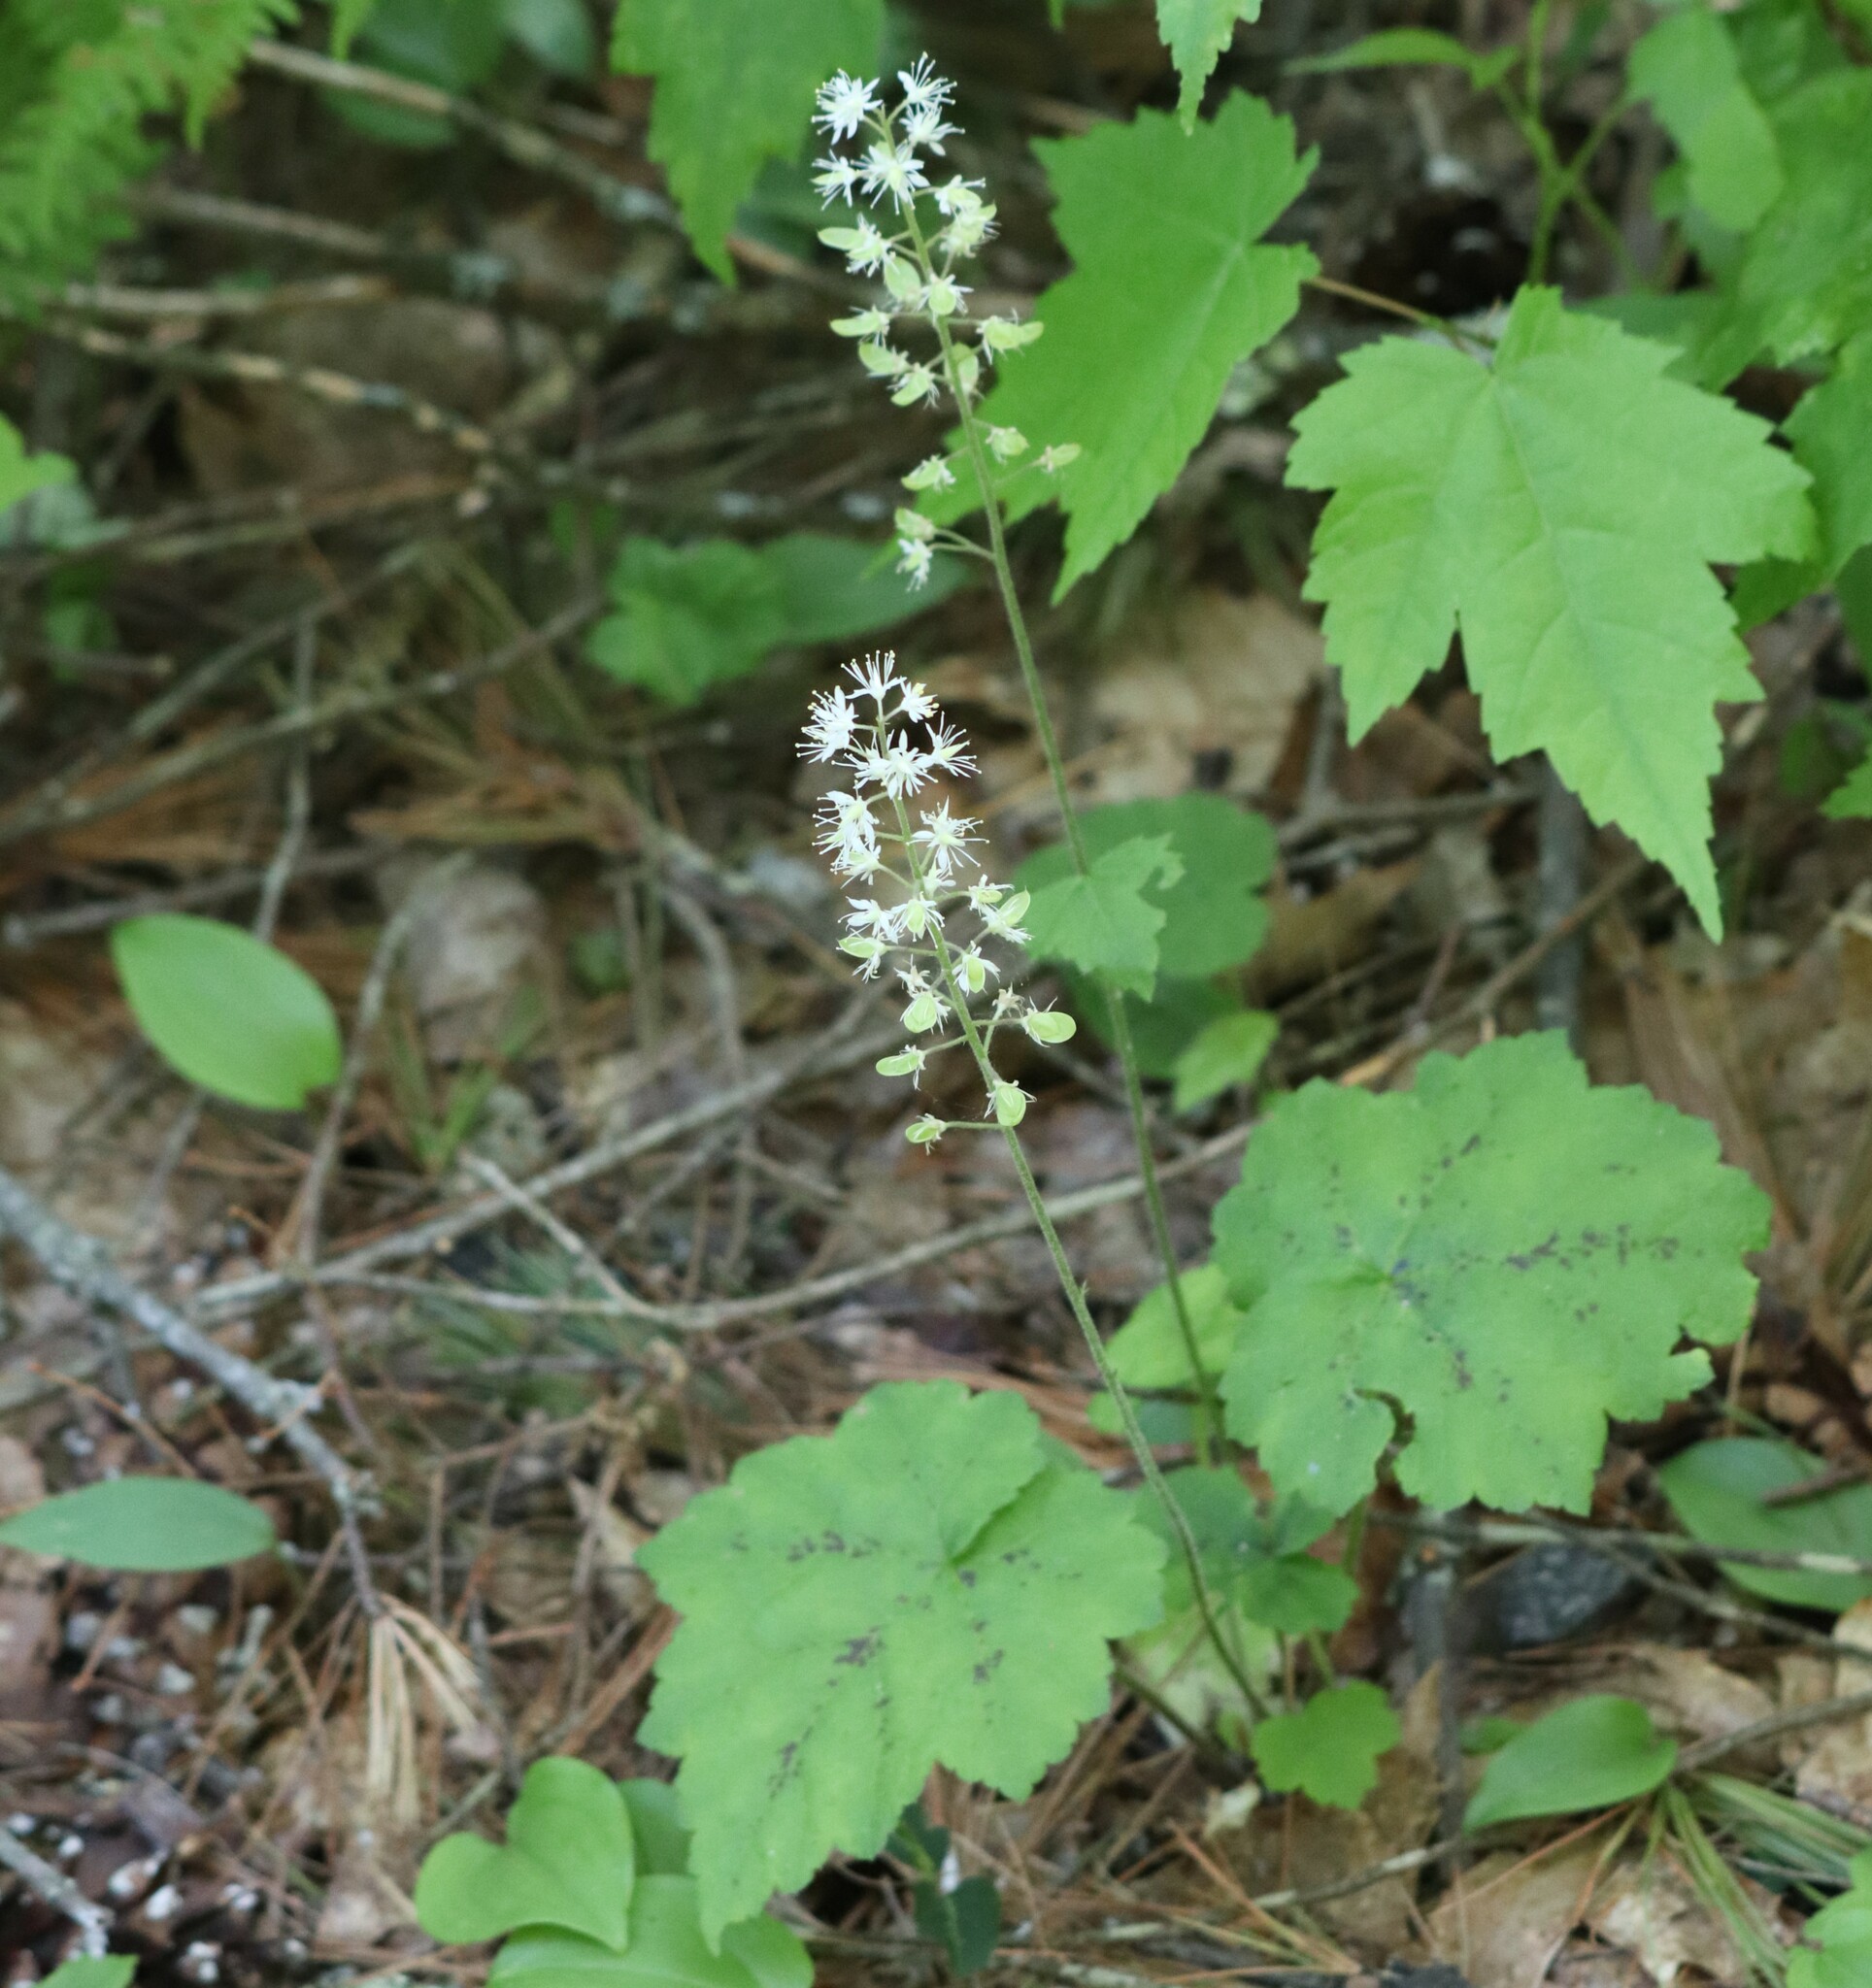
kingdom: Plantae
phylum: Tracheophyta
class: Magnoliopsida
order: Saxifragales
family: Saxifragaceae
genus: Tiarella
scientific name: Tiarella stolonifera
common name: Stoloniferous foamflower
